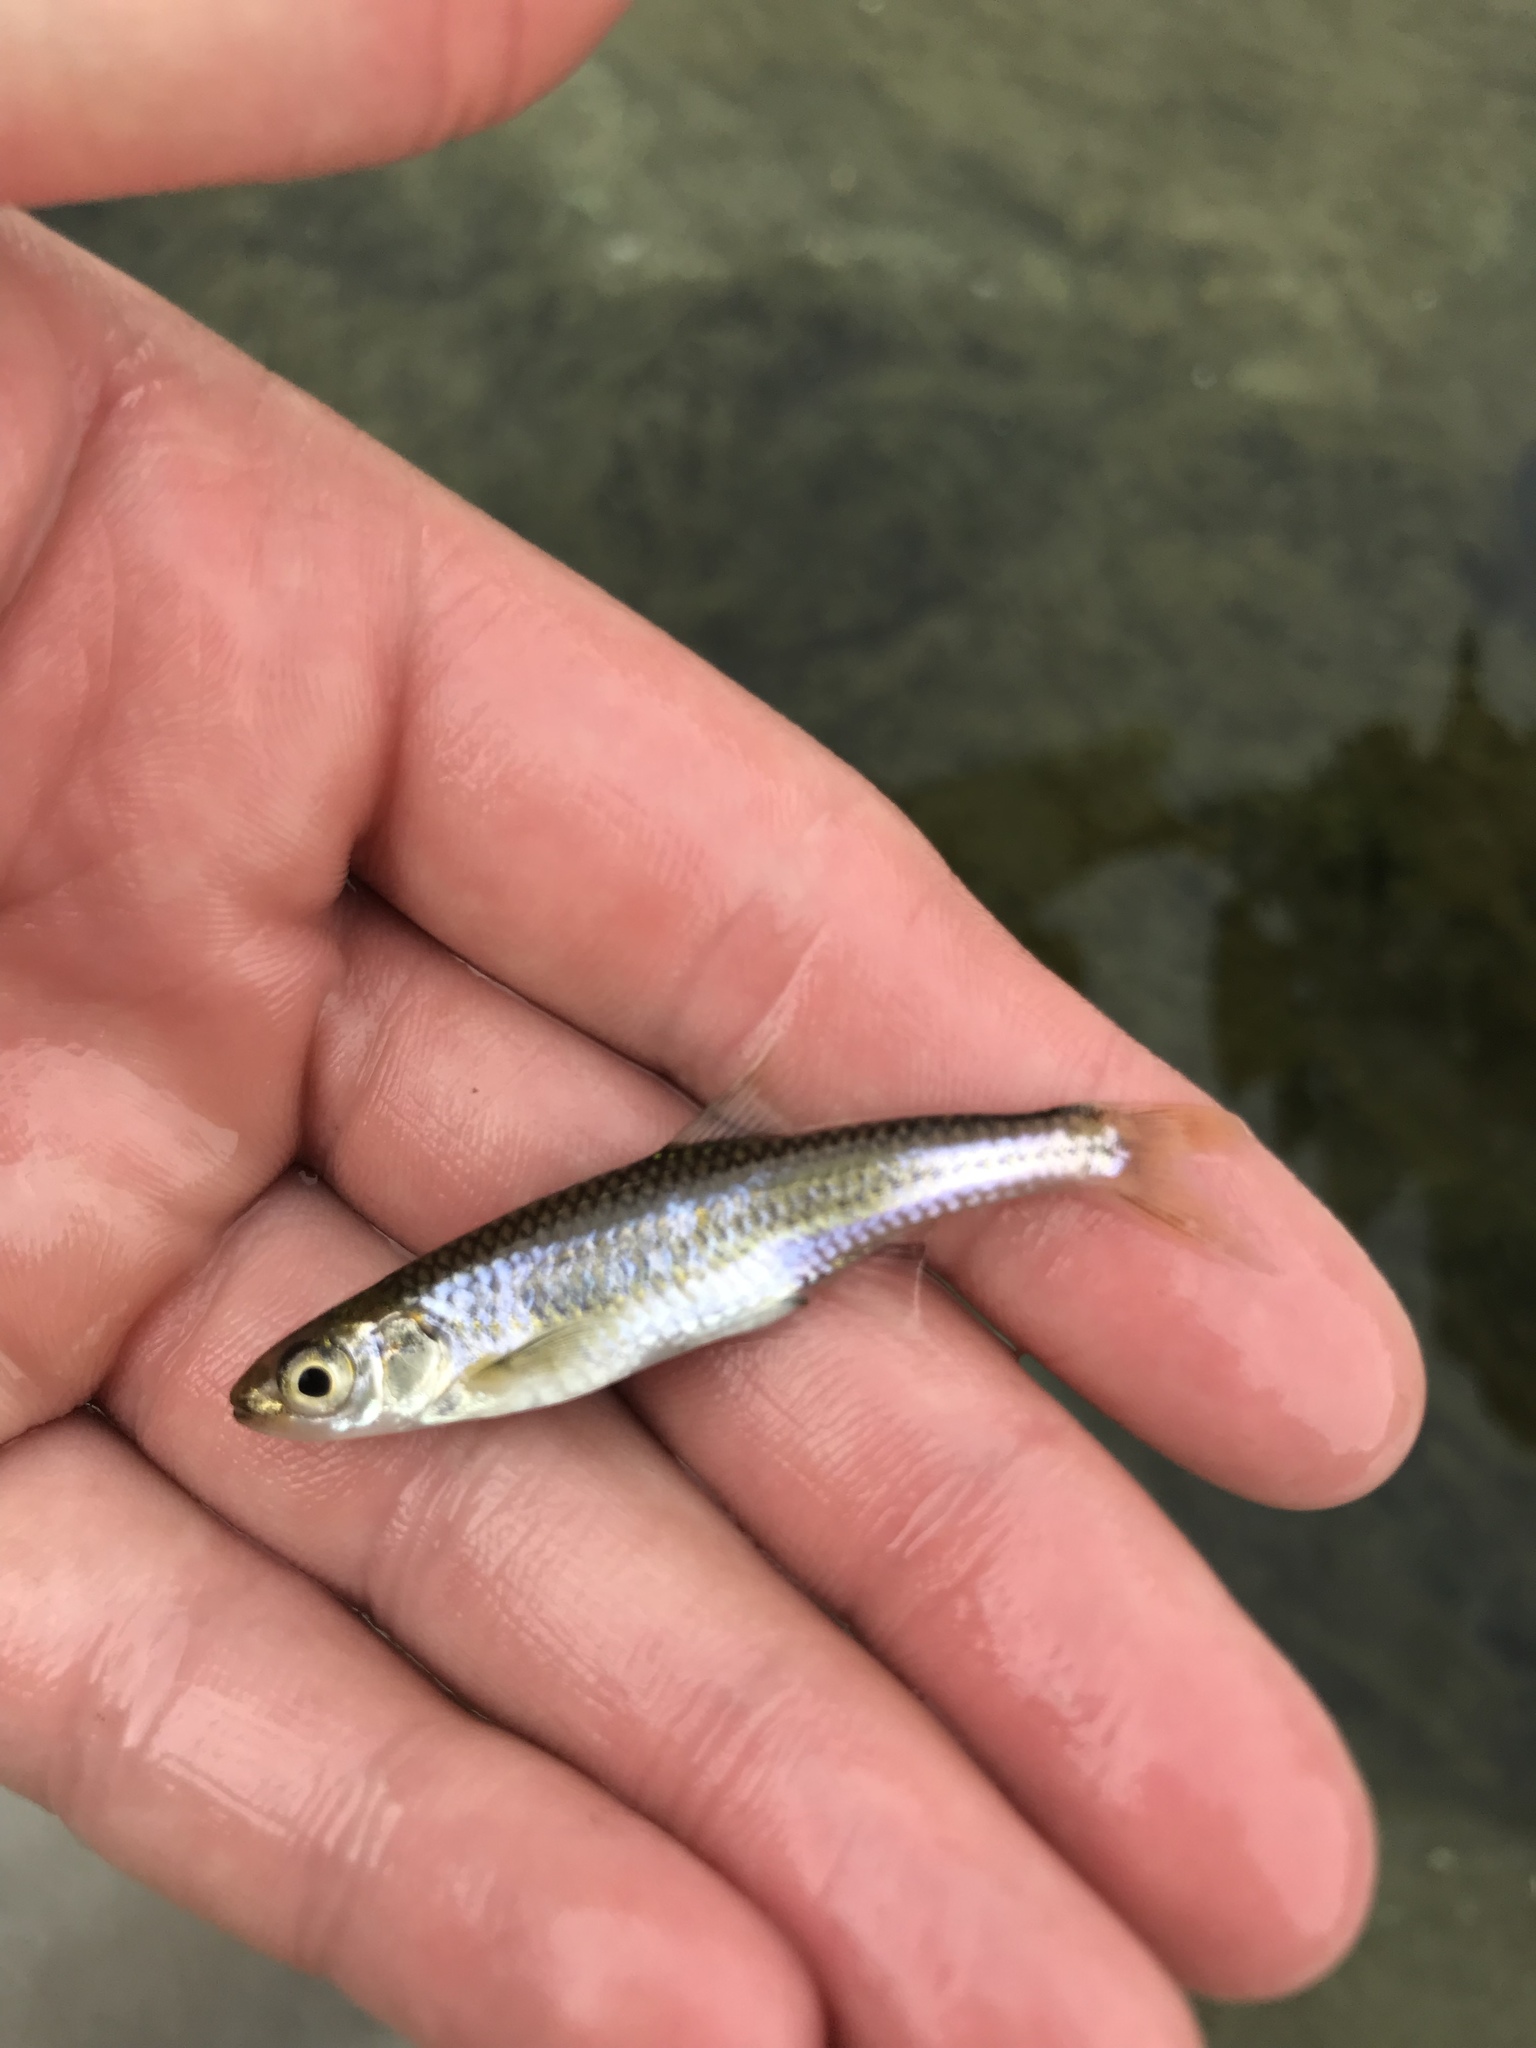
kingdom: Animalia
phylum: Chordata
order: Cypriniformes
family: Cyprinidae
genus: Notropis
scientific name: Notropis amabilis
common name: Texas shiner
